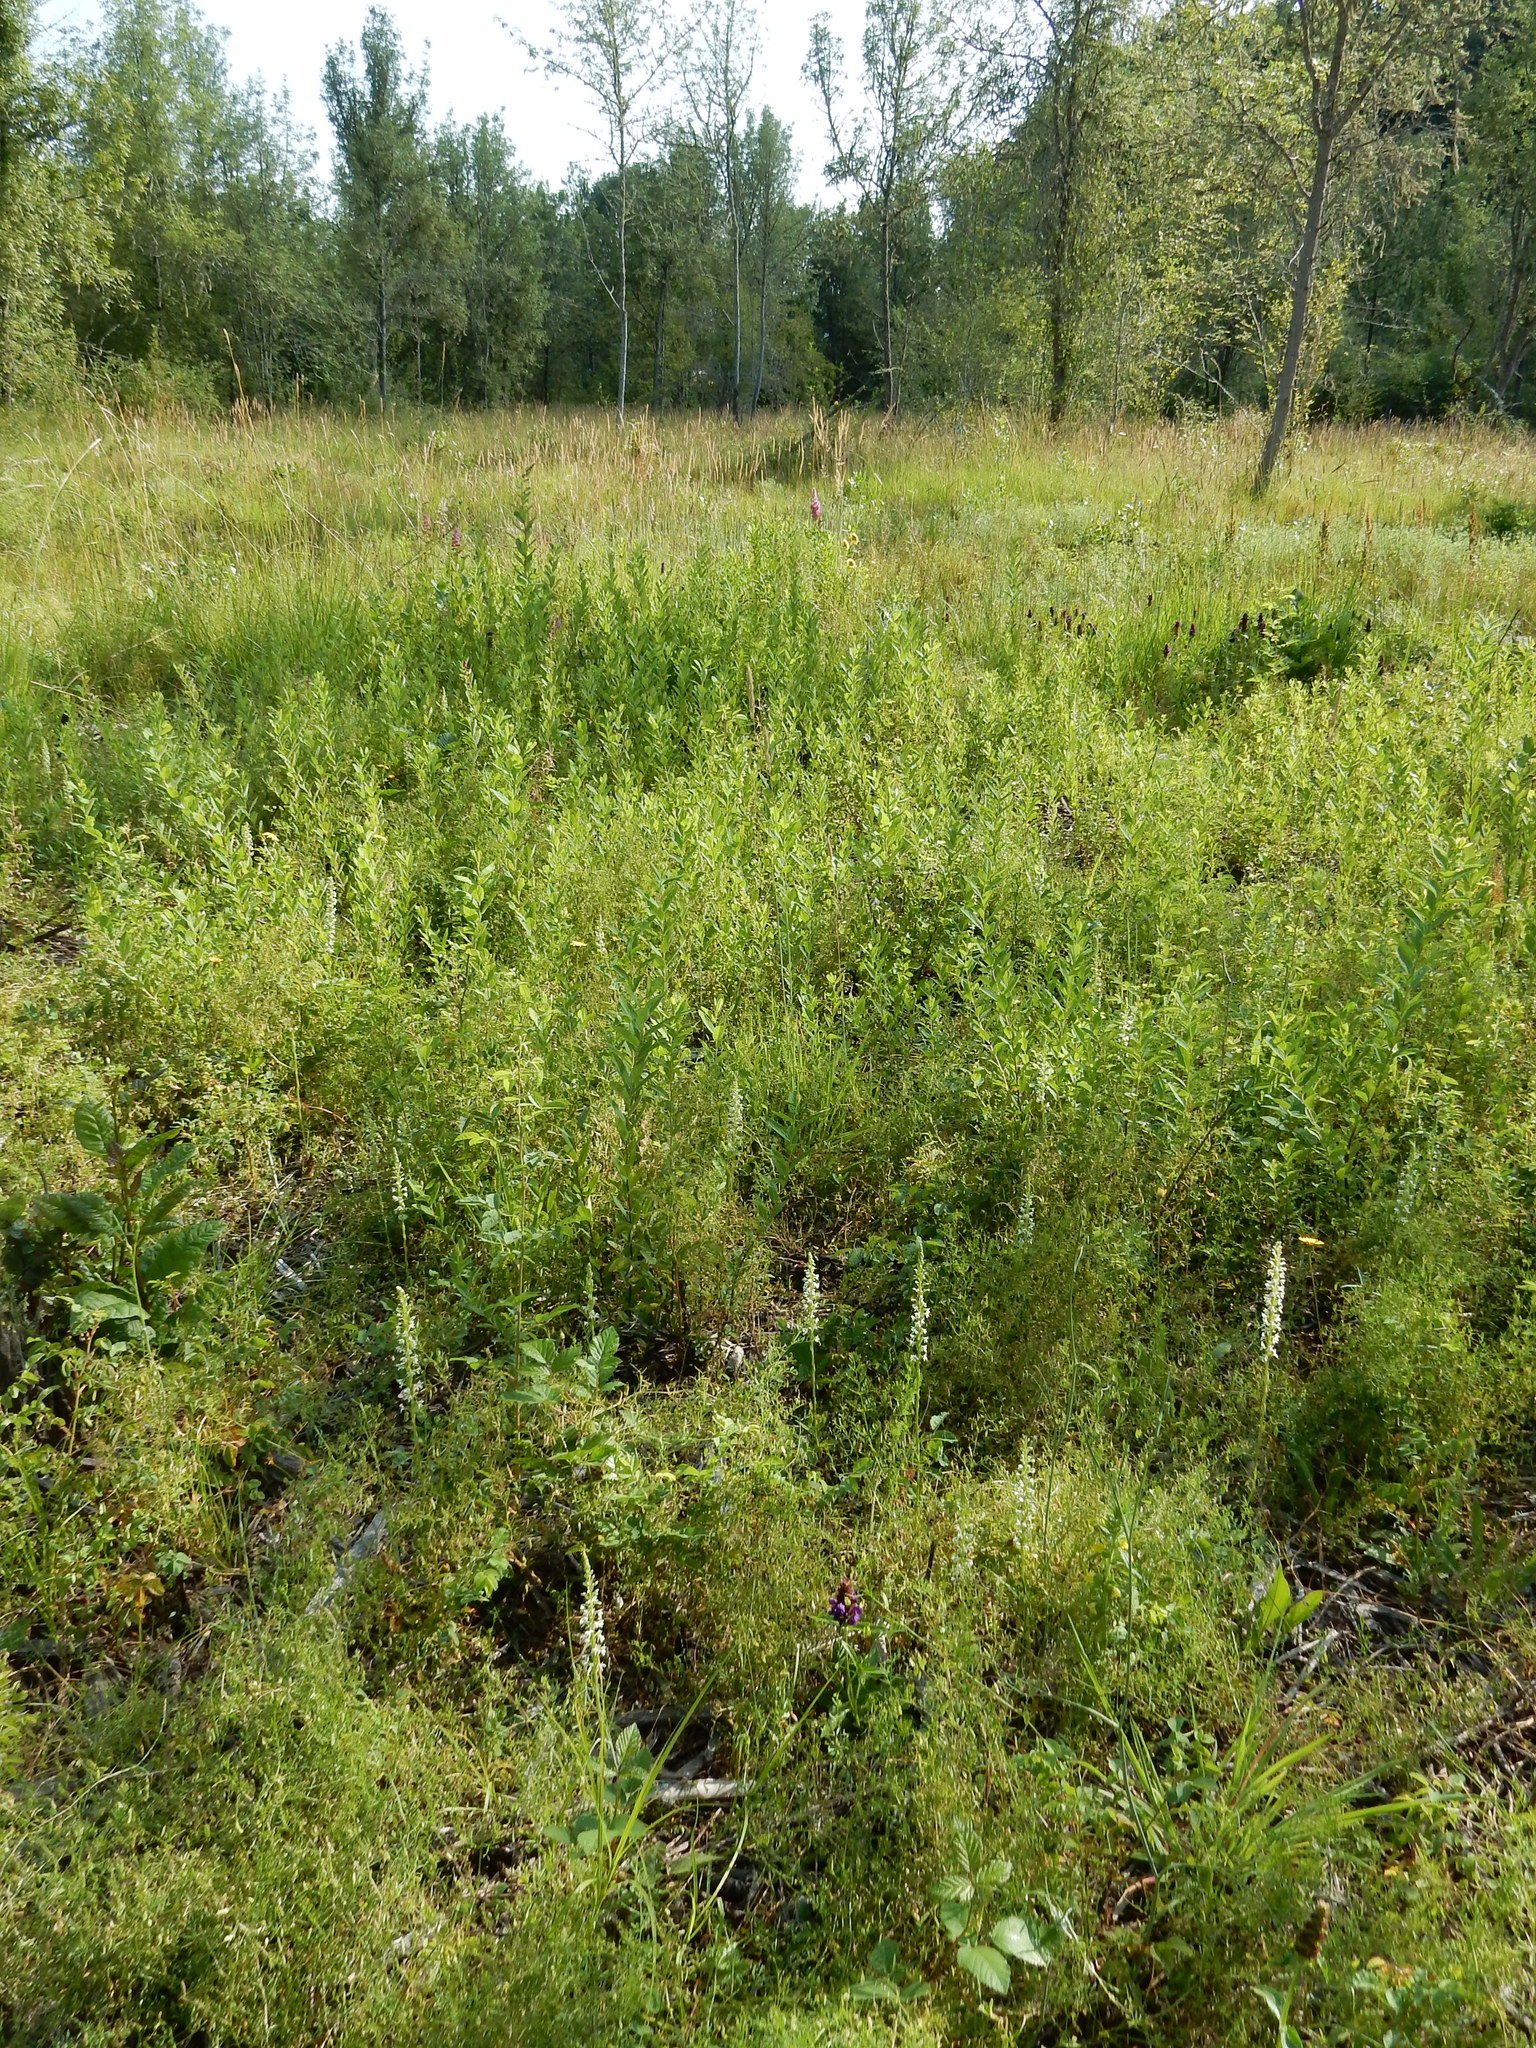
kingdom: Plantae
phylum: Tracheophyta
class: Liliopsida
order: Asparagales
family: Orchidaceae
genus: Platanthera
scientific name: Platanthera elegans
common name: Coast piperia
